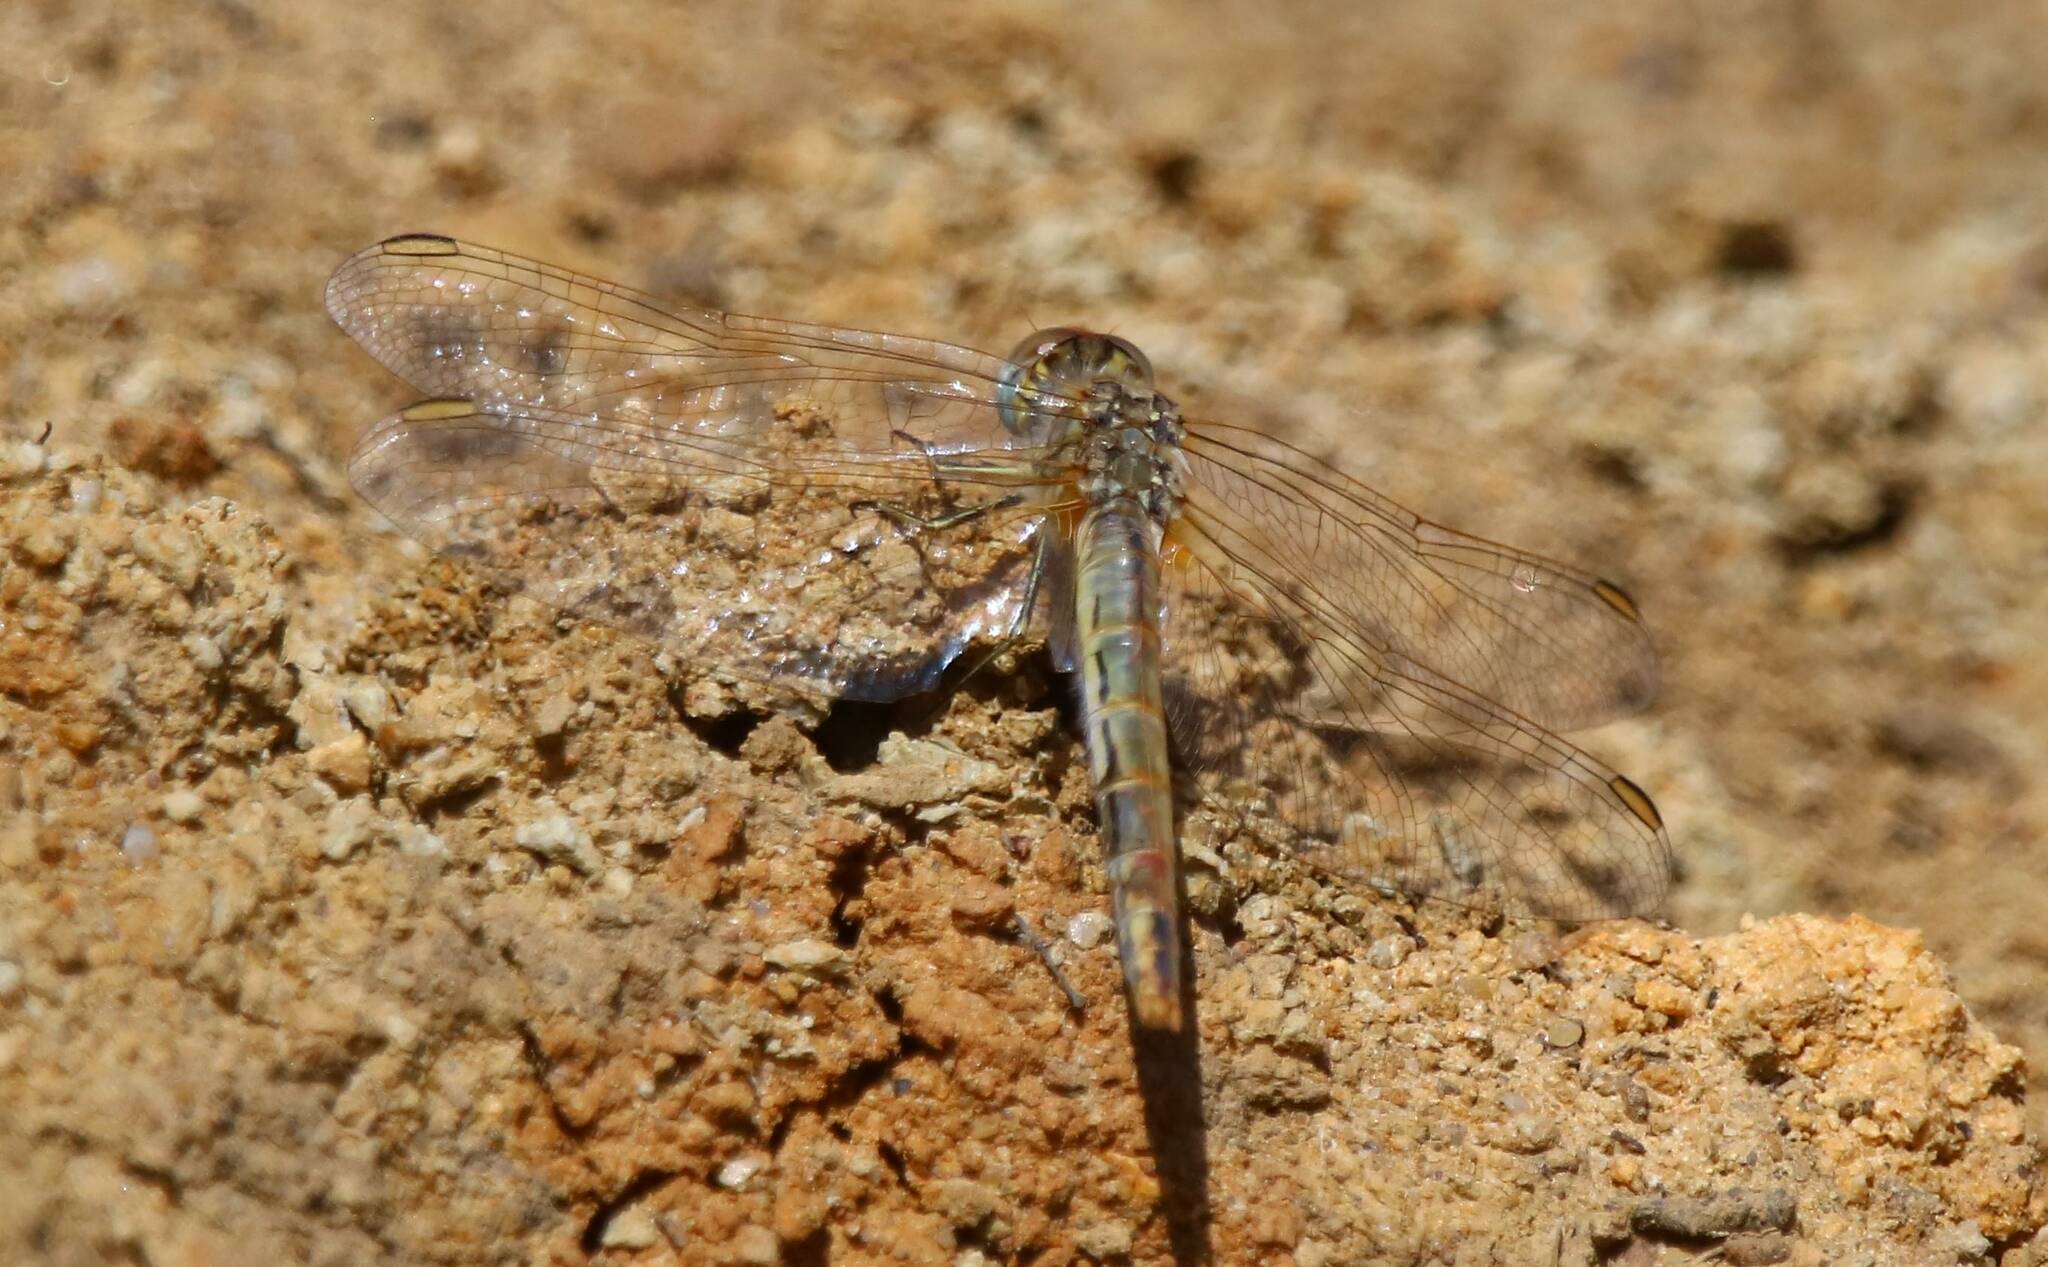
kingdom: Animalia
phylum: Arthropoda
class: Insecta
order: Odonata
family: Libellulidae
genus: Sympetrum
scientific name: Sympetrum fonscolombii
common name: Red-veined darter
